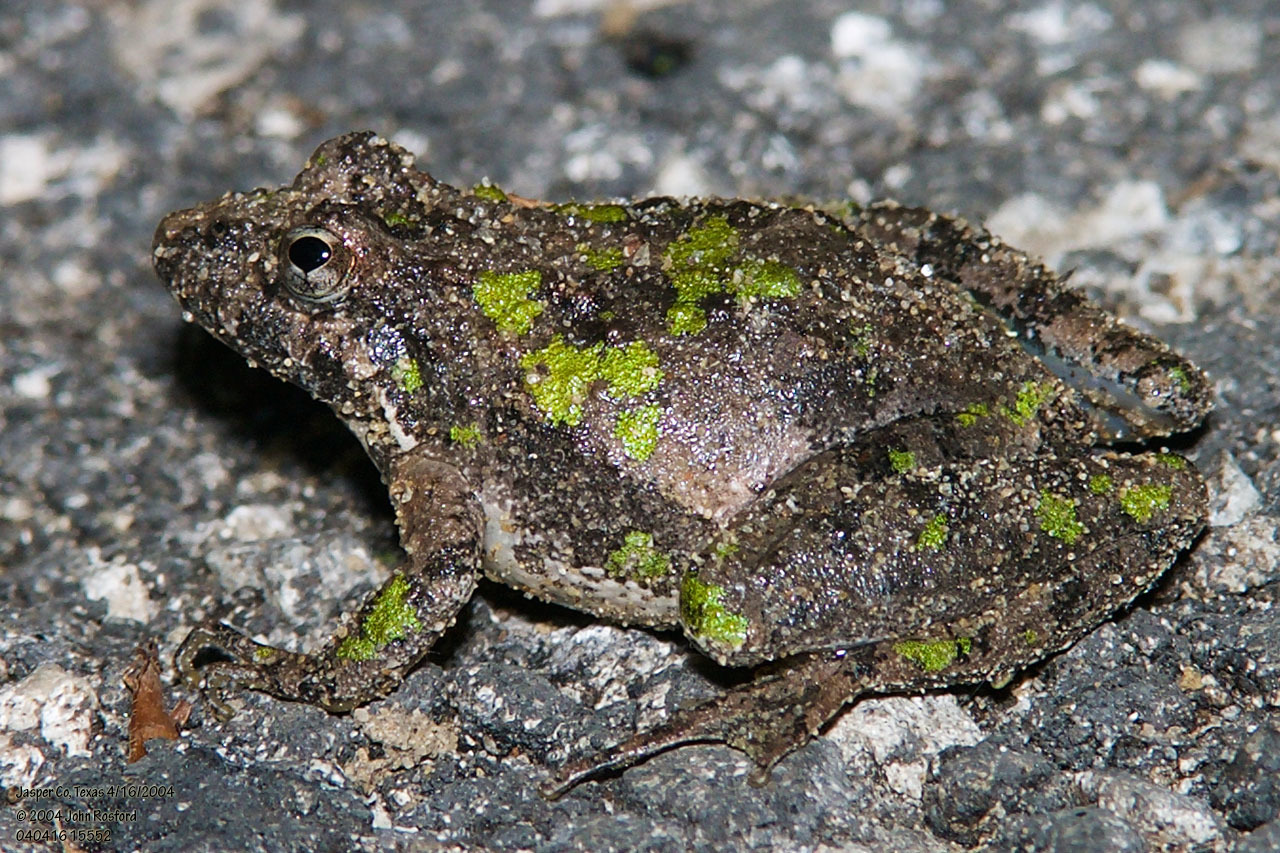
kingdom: Animalia
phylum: Chordata
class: Amphibia
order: Anura
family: Hylidae
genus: Acris
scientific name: Acris blanchardi
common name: Blanchard's cricket frog
